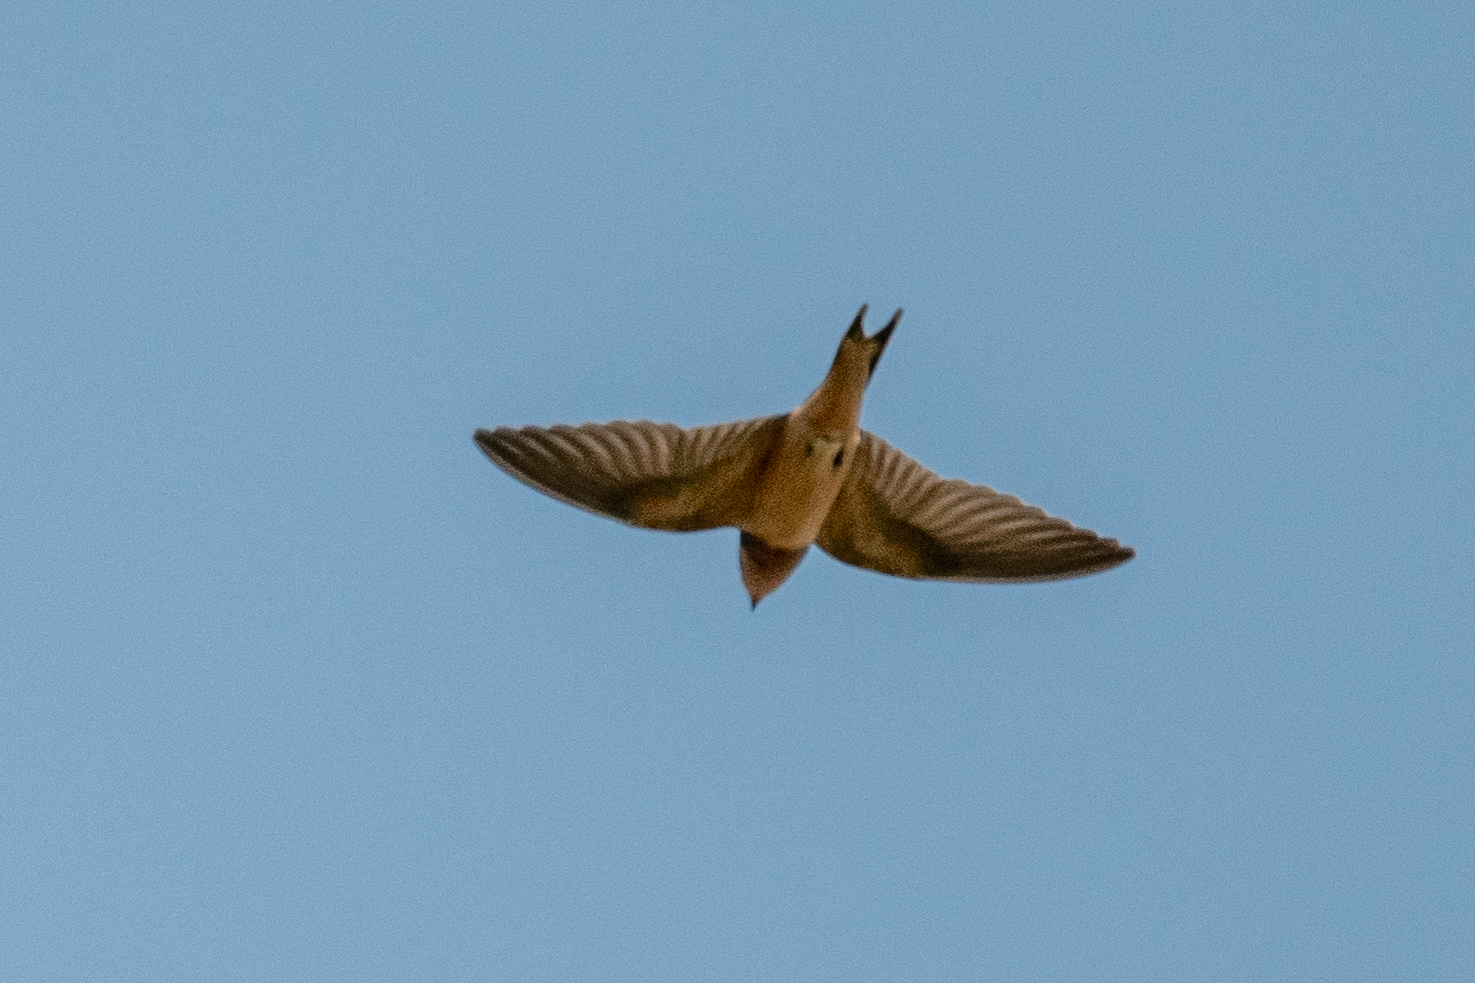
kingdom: Animalia
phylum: Chordata
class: Aves
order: Passeriformes
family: Hirundinidae
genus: Hirundo
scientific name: Hirundo rustica
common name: Barn swallow
